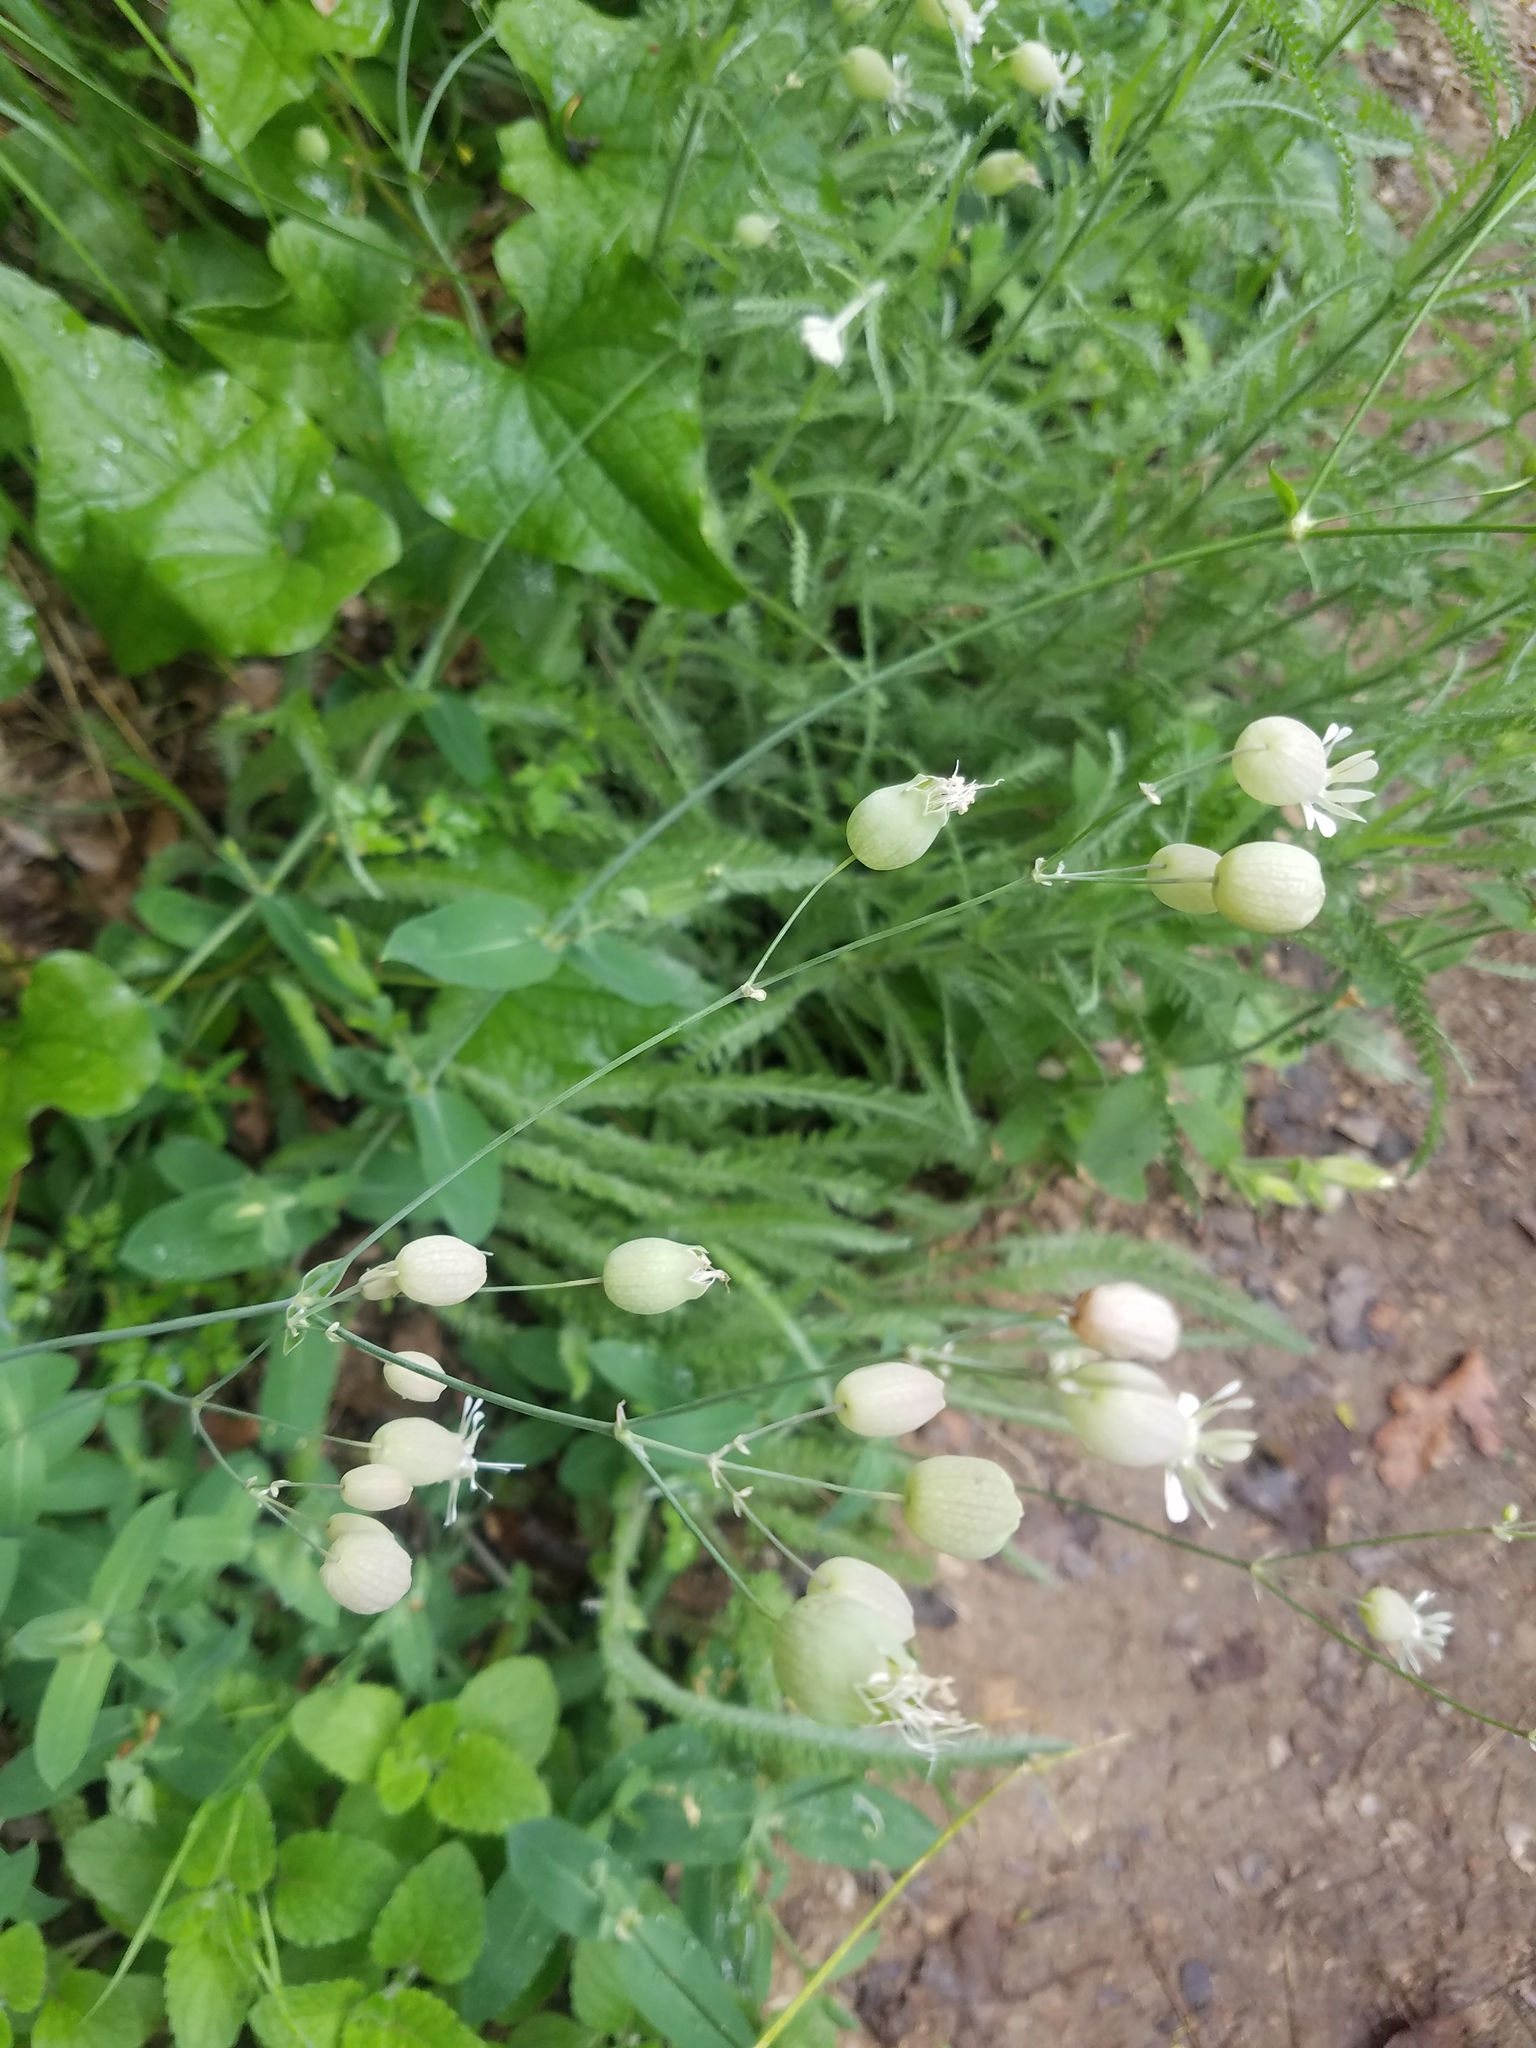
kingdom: Plantae
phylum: Tracheophyta
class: Magnoliopsida
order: Caryophyllales
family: Caryophyllaceae
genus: Silene
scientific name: Silene vulgaris
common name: Bladder campion
